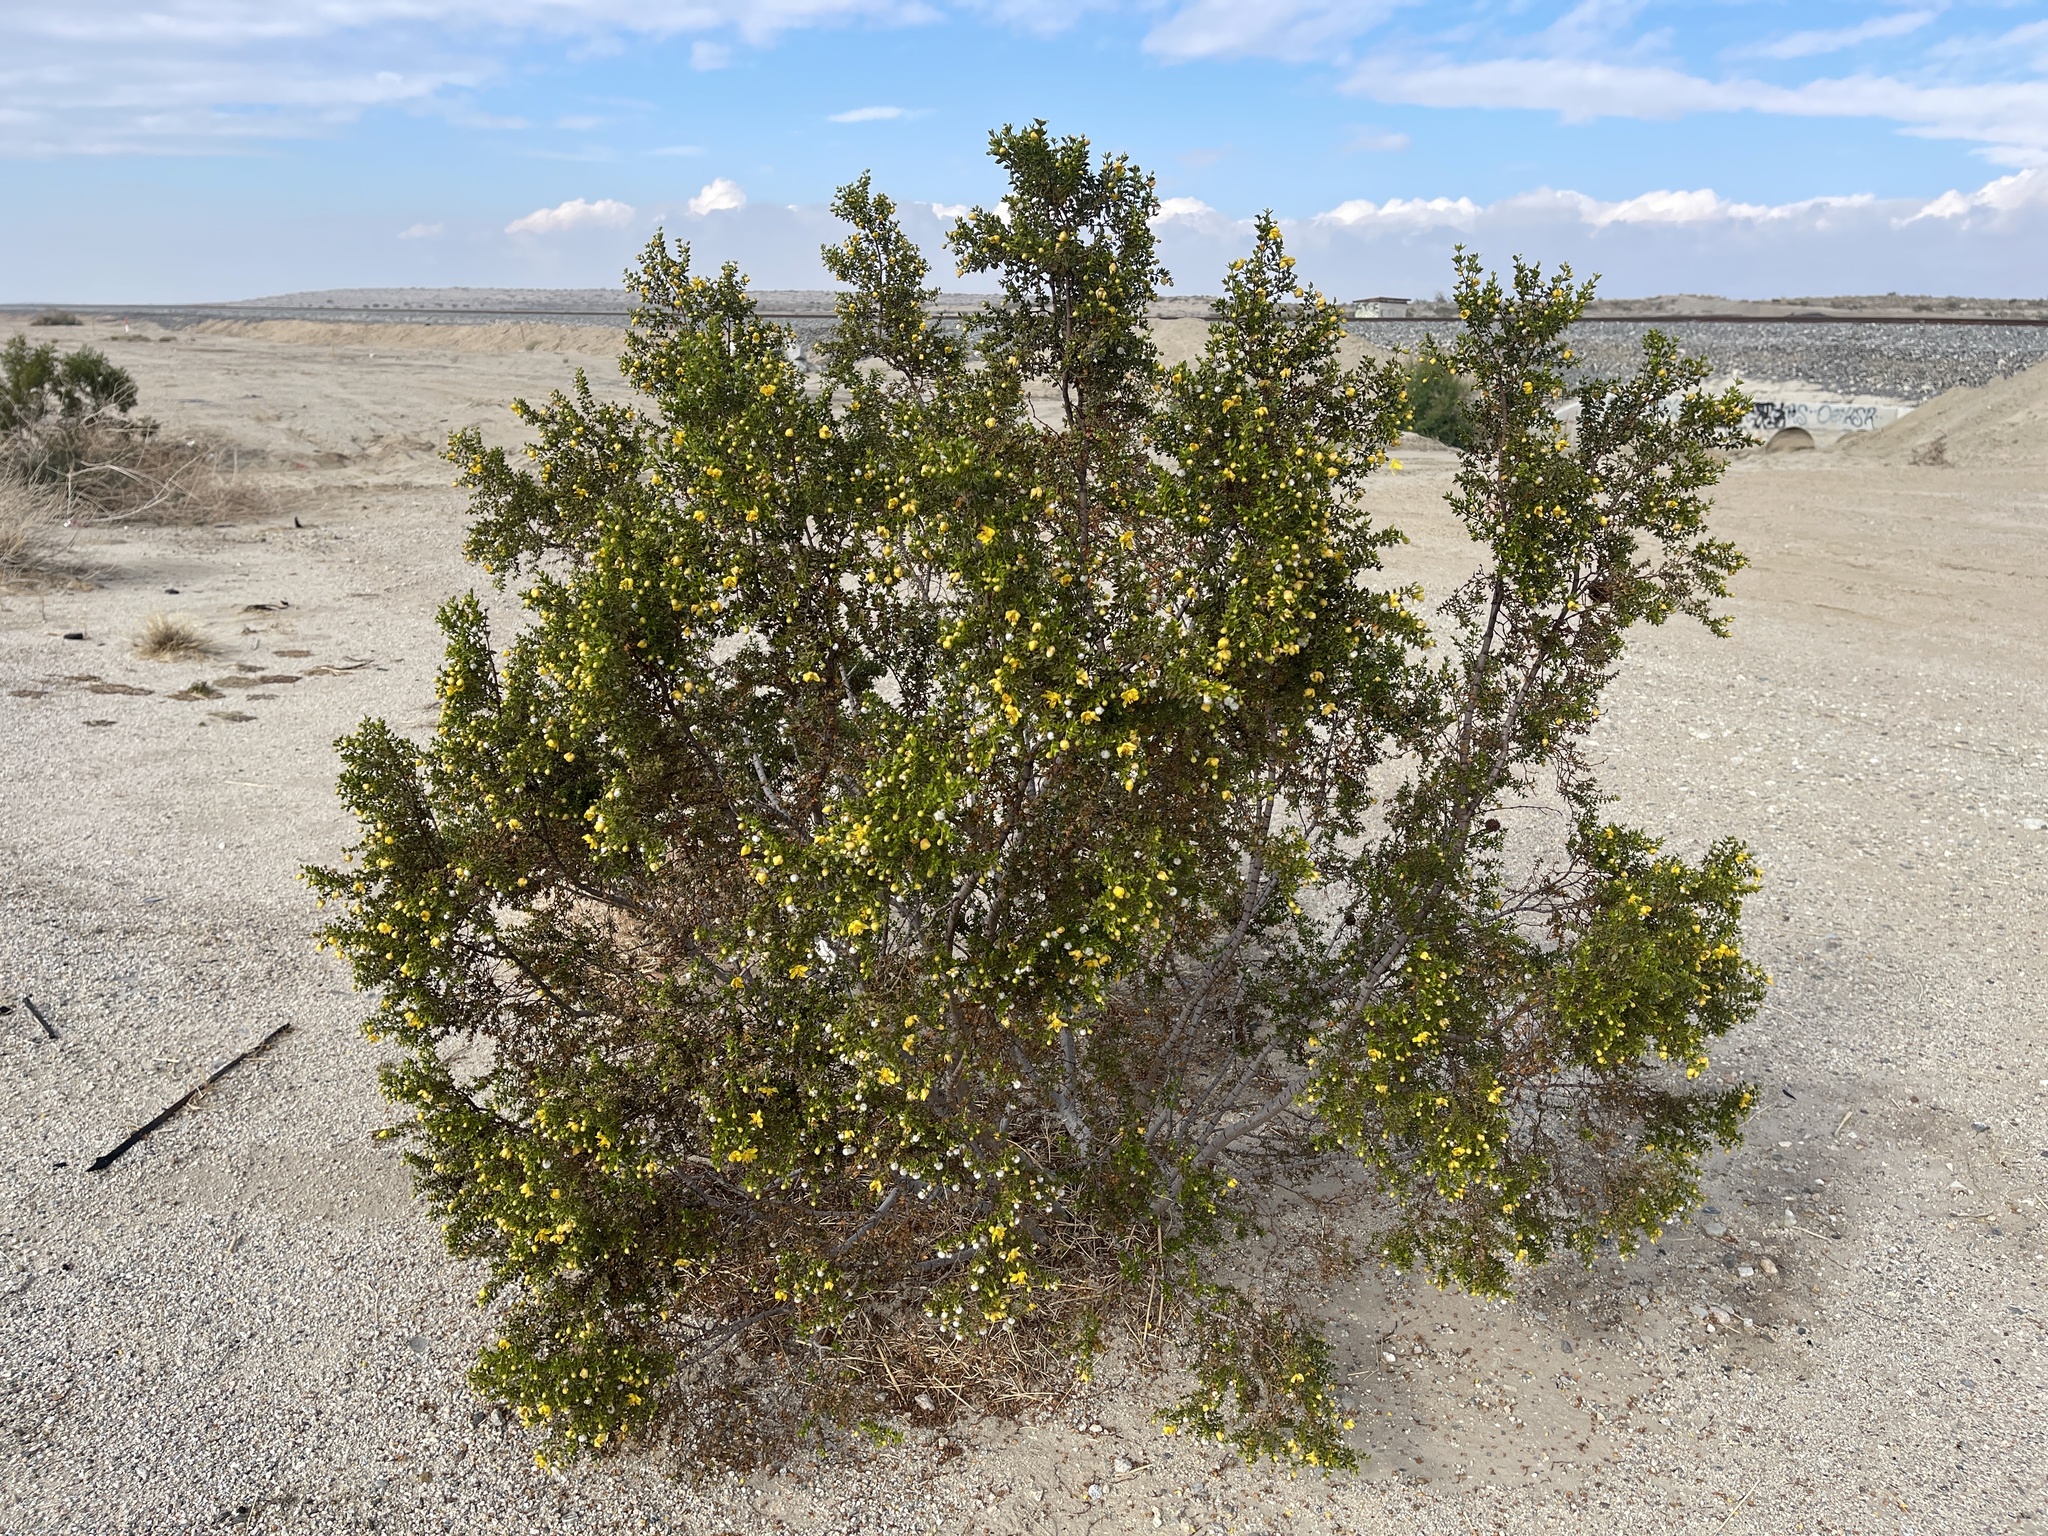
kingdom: Plantae
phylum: Tracheophyta
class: Magnoliopsida
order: Zygophyllales
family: Zygophyllaceae
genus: Larrea
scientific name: Larrea tridentata
